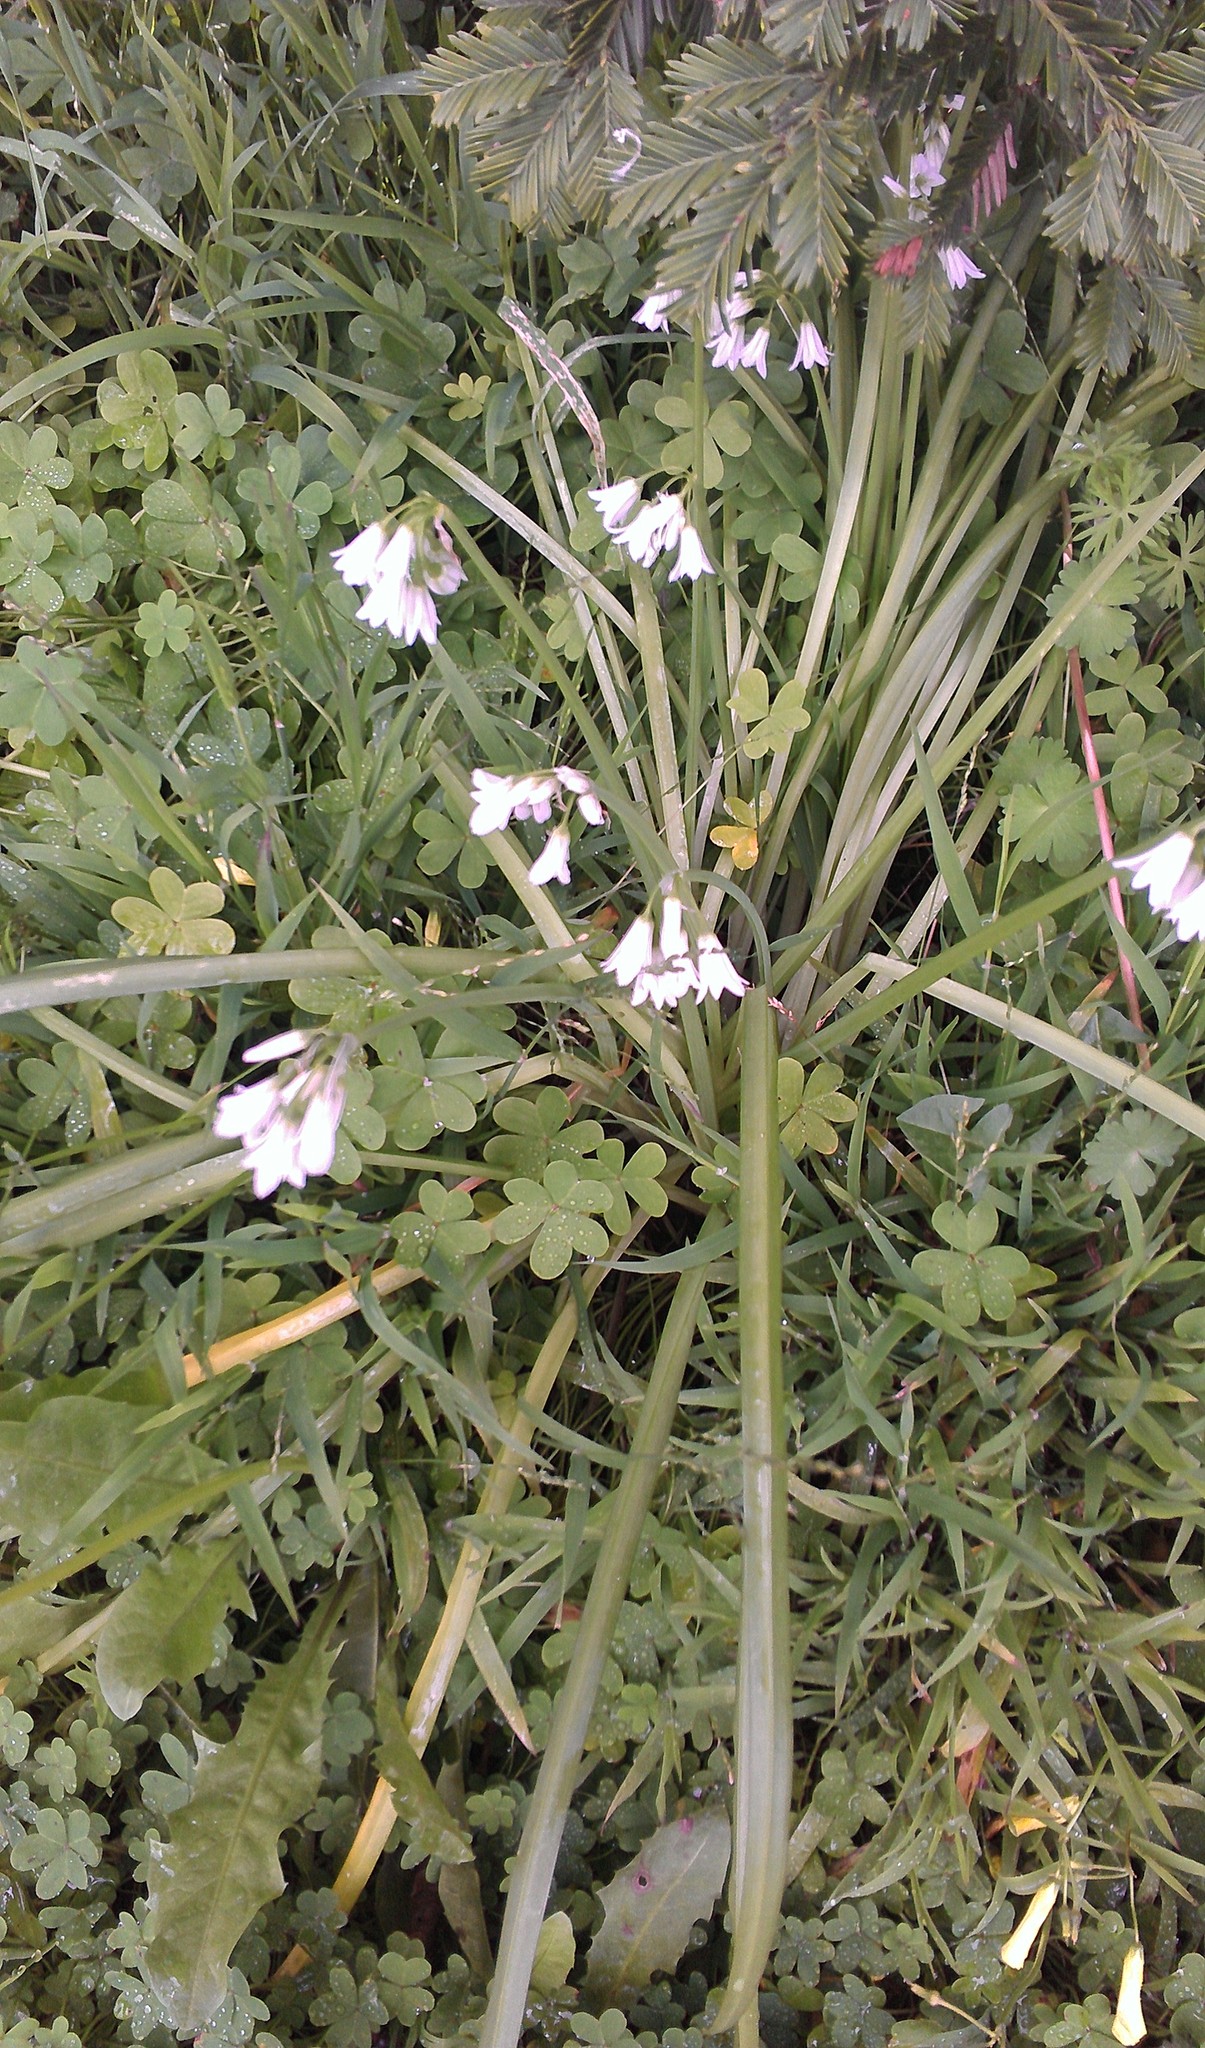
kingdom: Plantae
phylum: Tracheophyta
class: Liliopsida
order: Asparagales
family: Amaryllidaceae
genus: Allium
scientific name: Allium triquetrum
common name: Three-cornered garlic
